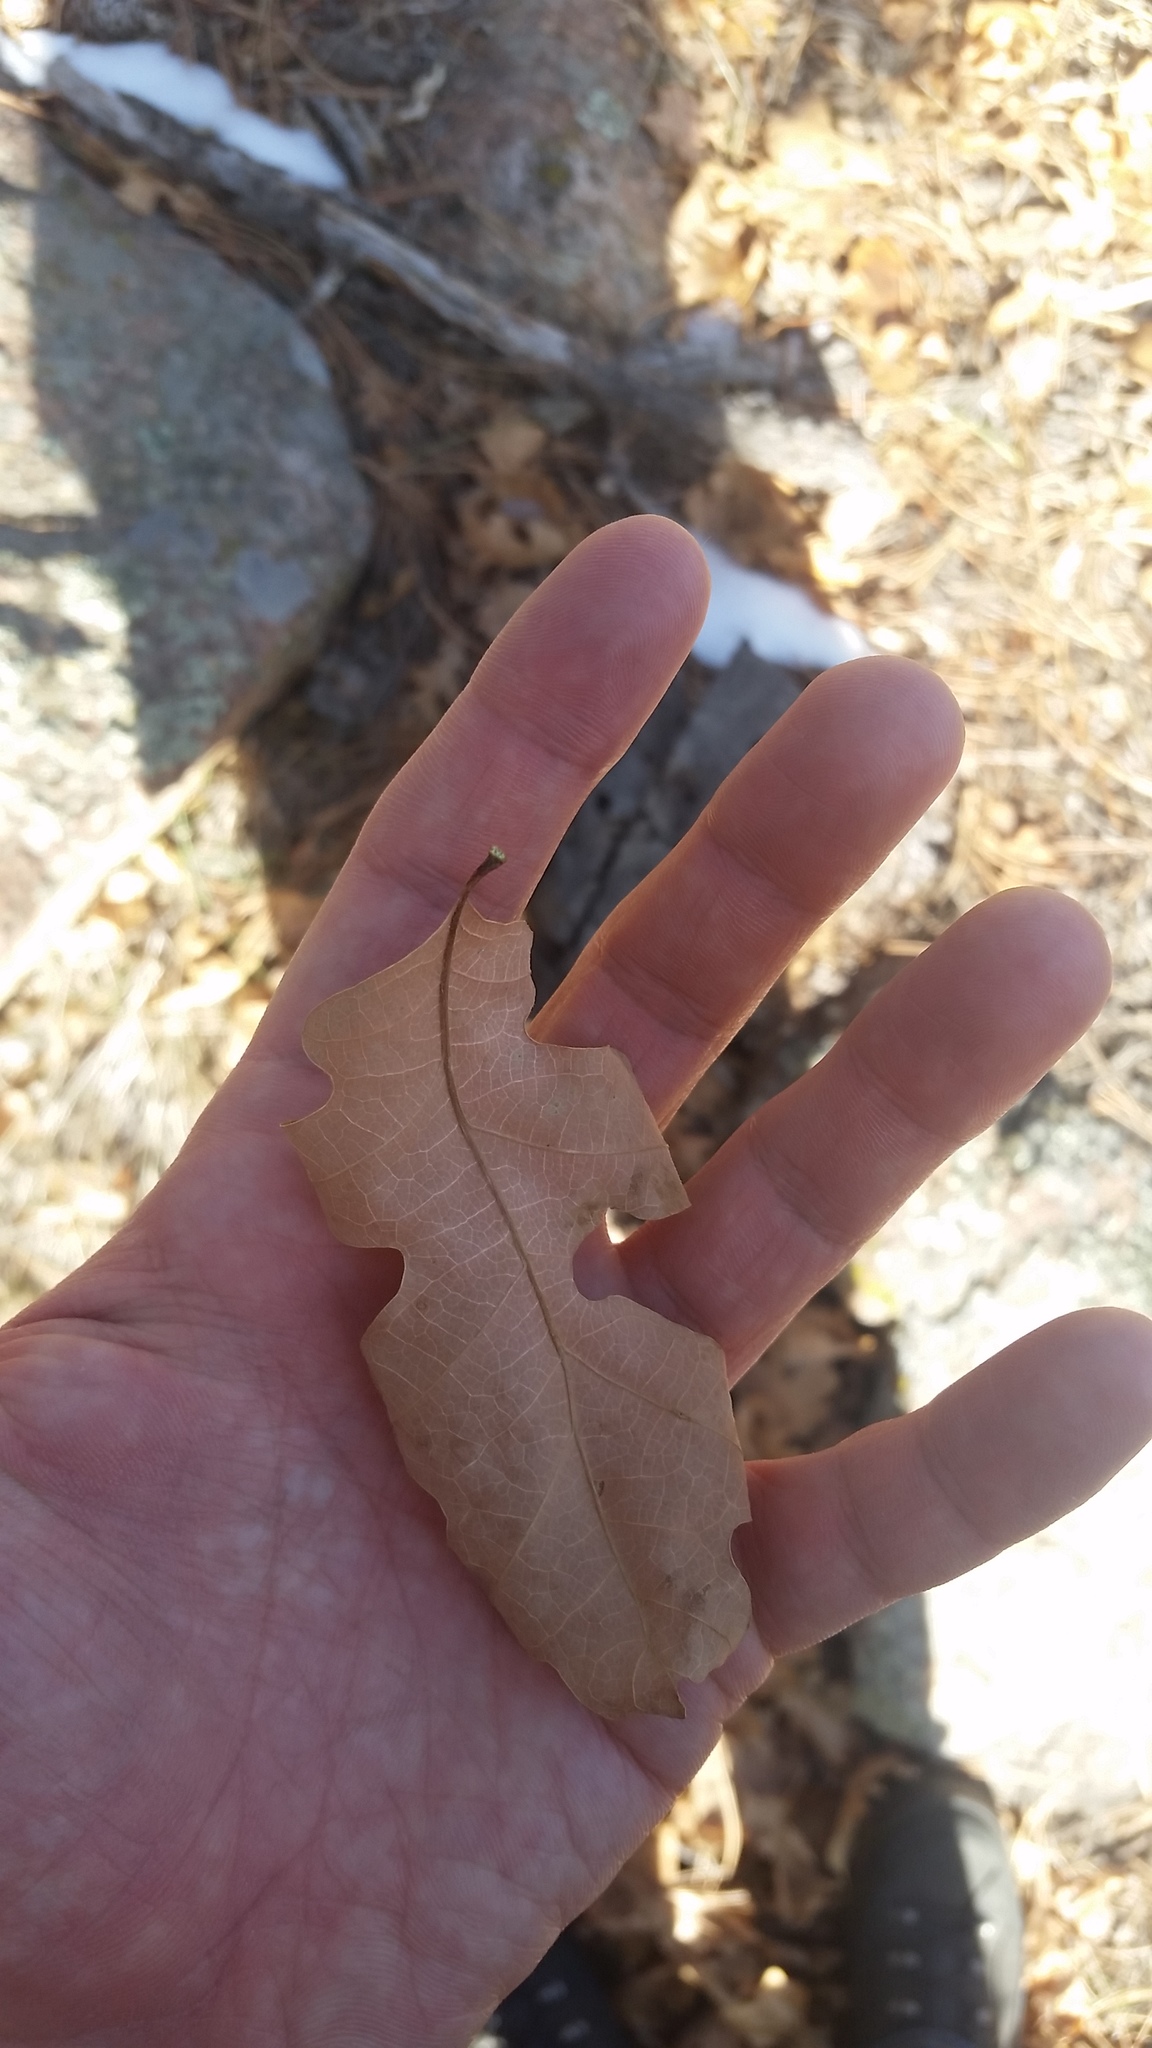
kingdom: Plantae
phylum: Tracheophyta
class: Magnoliopsida
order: Fagales
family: Fagaceae
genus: Quercus
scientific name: Quercus gambelii
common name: Gambel oak
